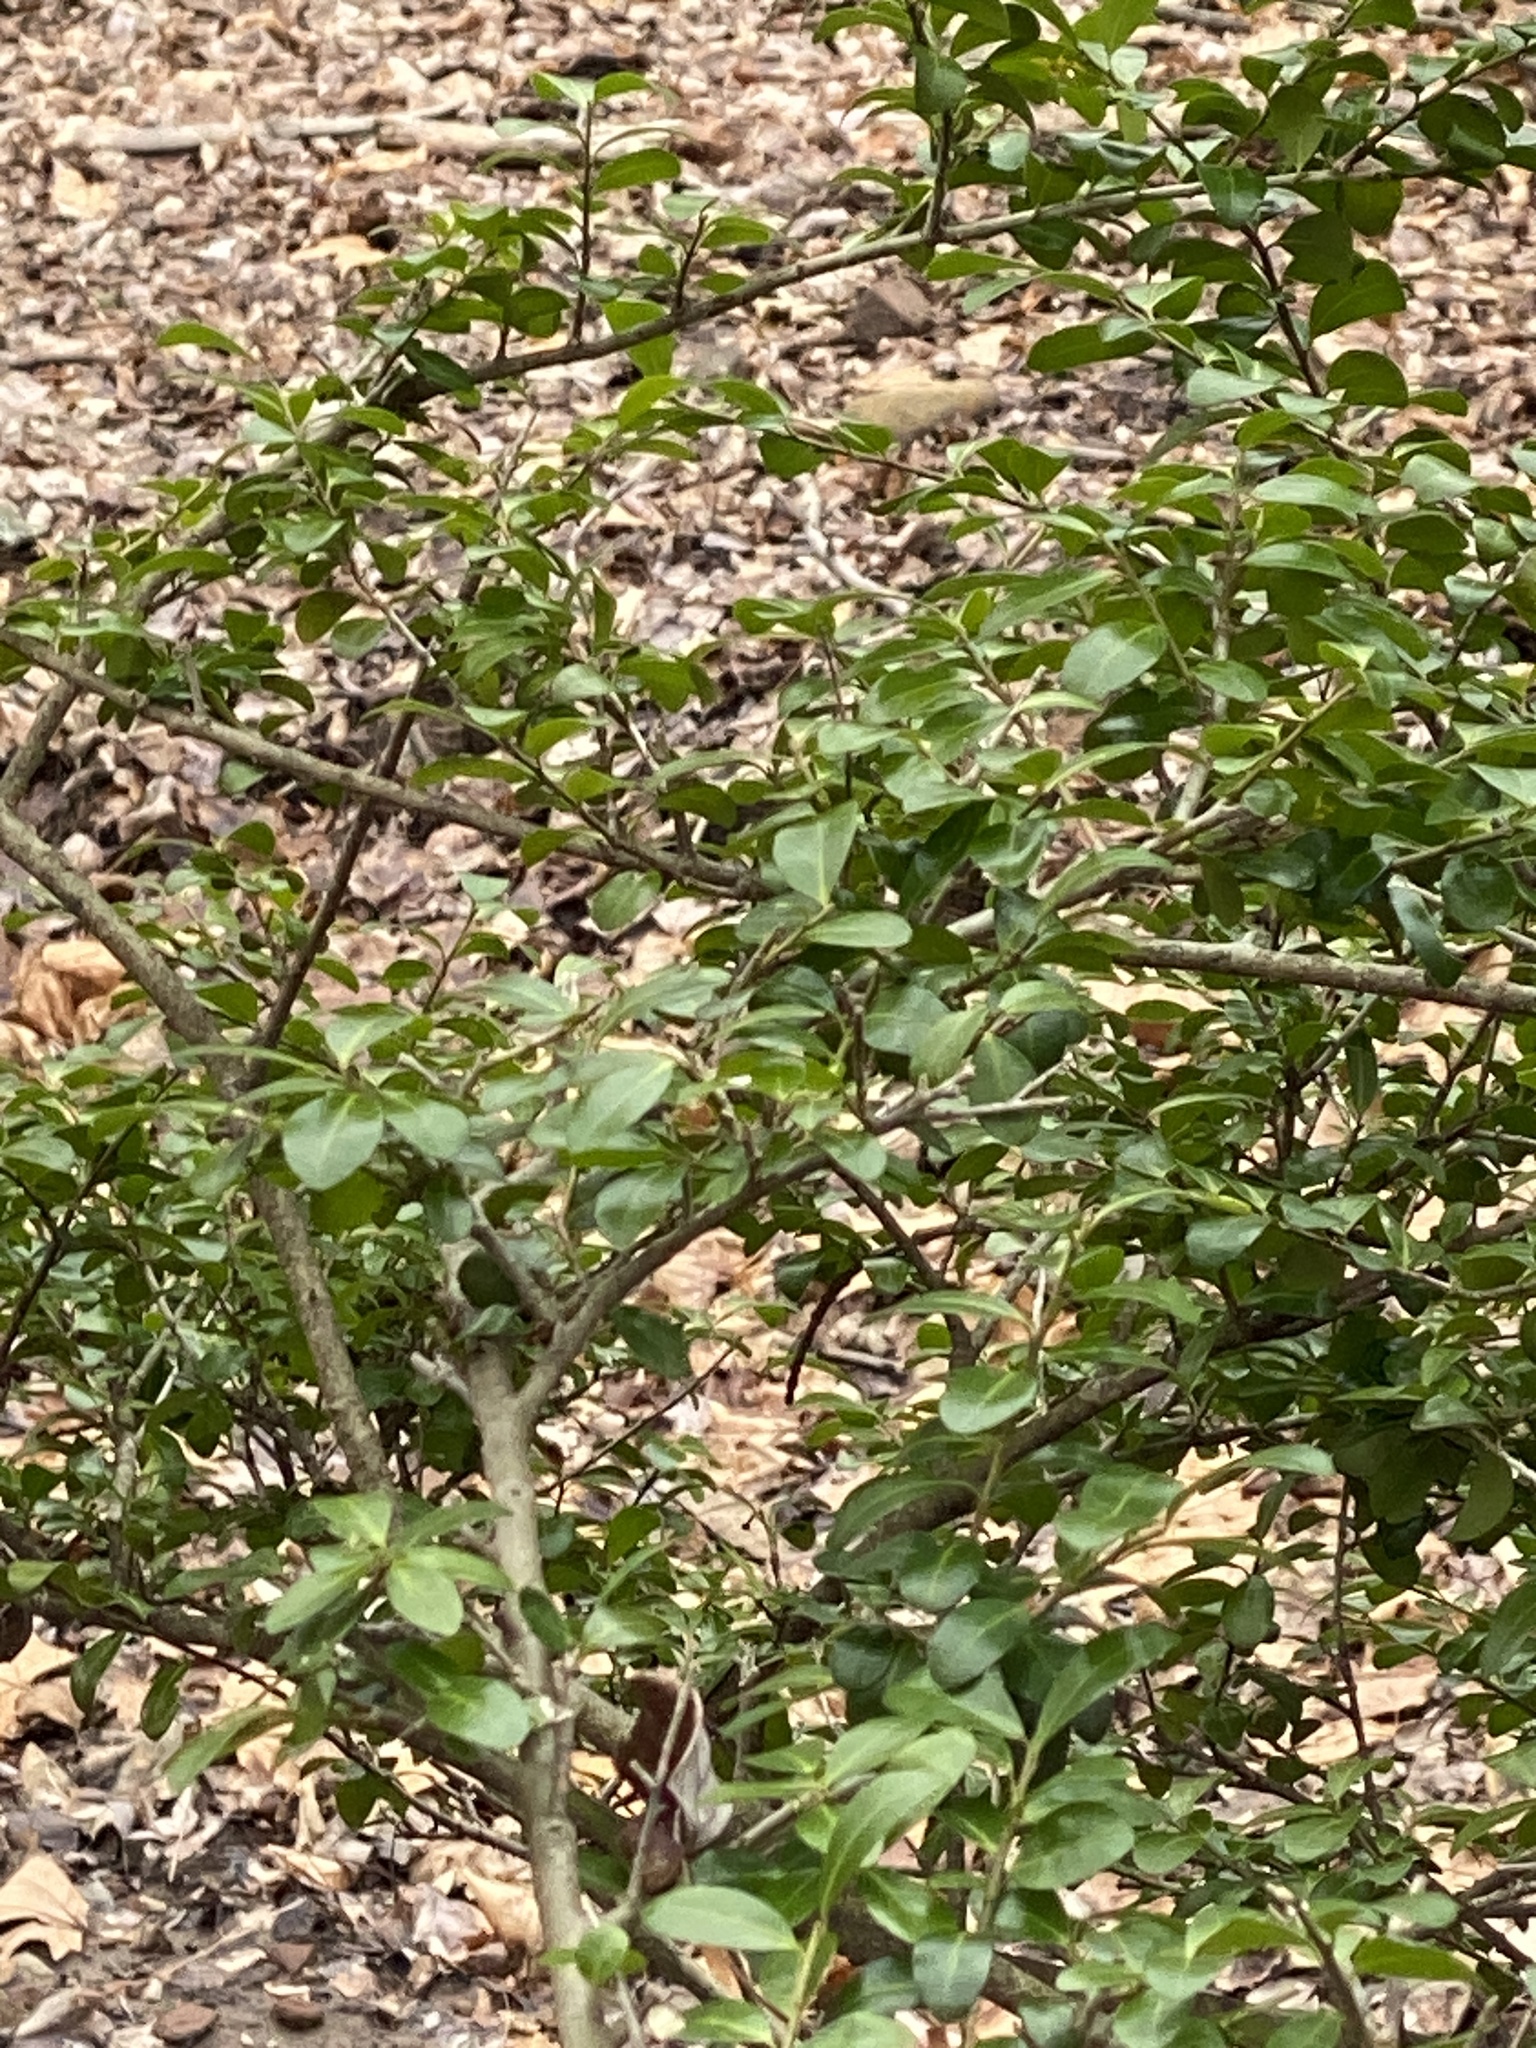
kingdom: Plantae
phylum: Tracheophyta
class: Magnoliopsida
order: Aquifoliales
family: Aquifoliaceae
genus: Ilex
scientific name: Ilex crenata
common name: Japanese holly
